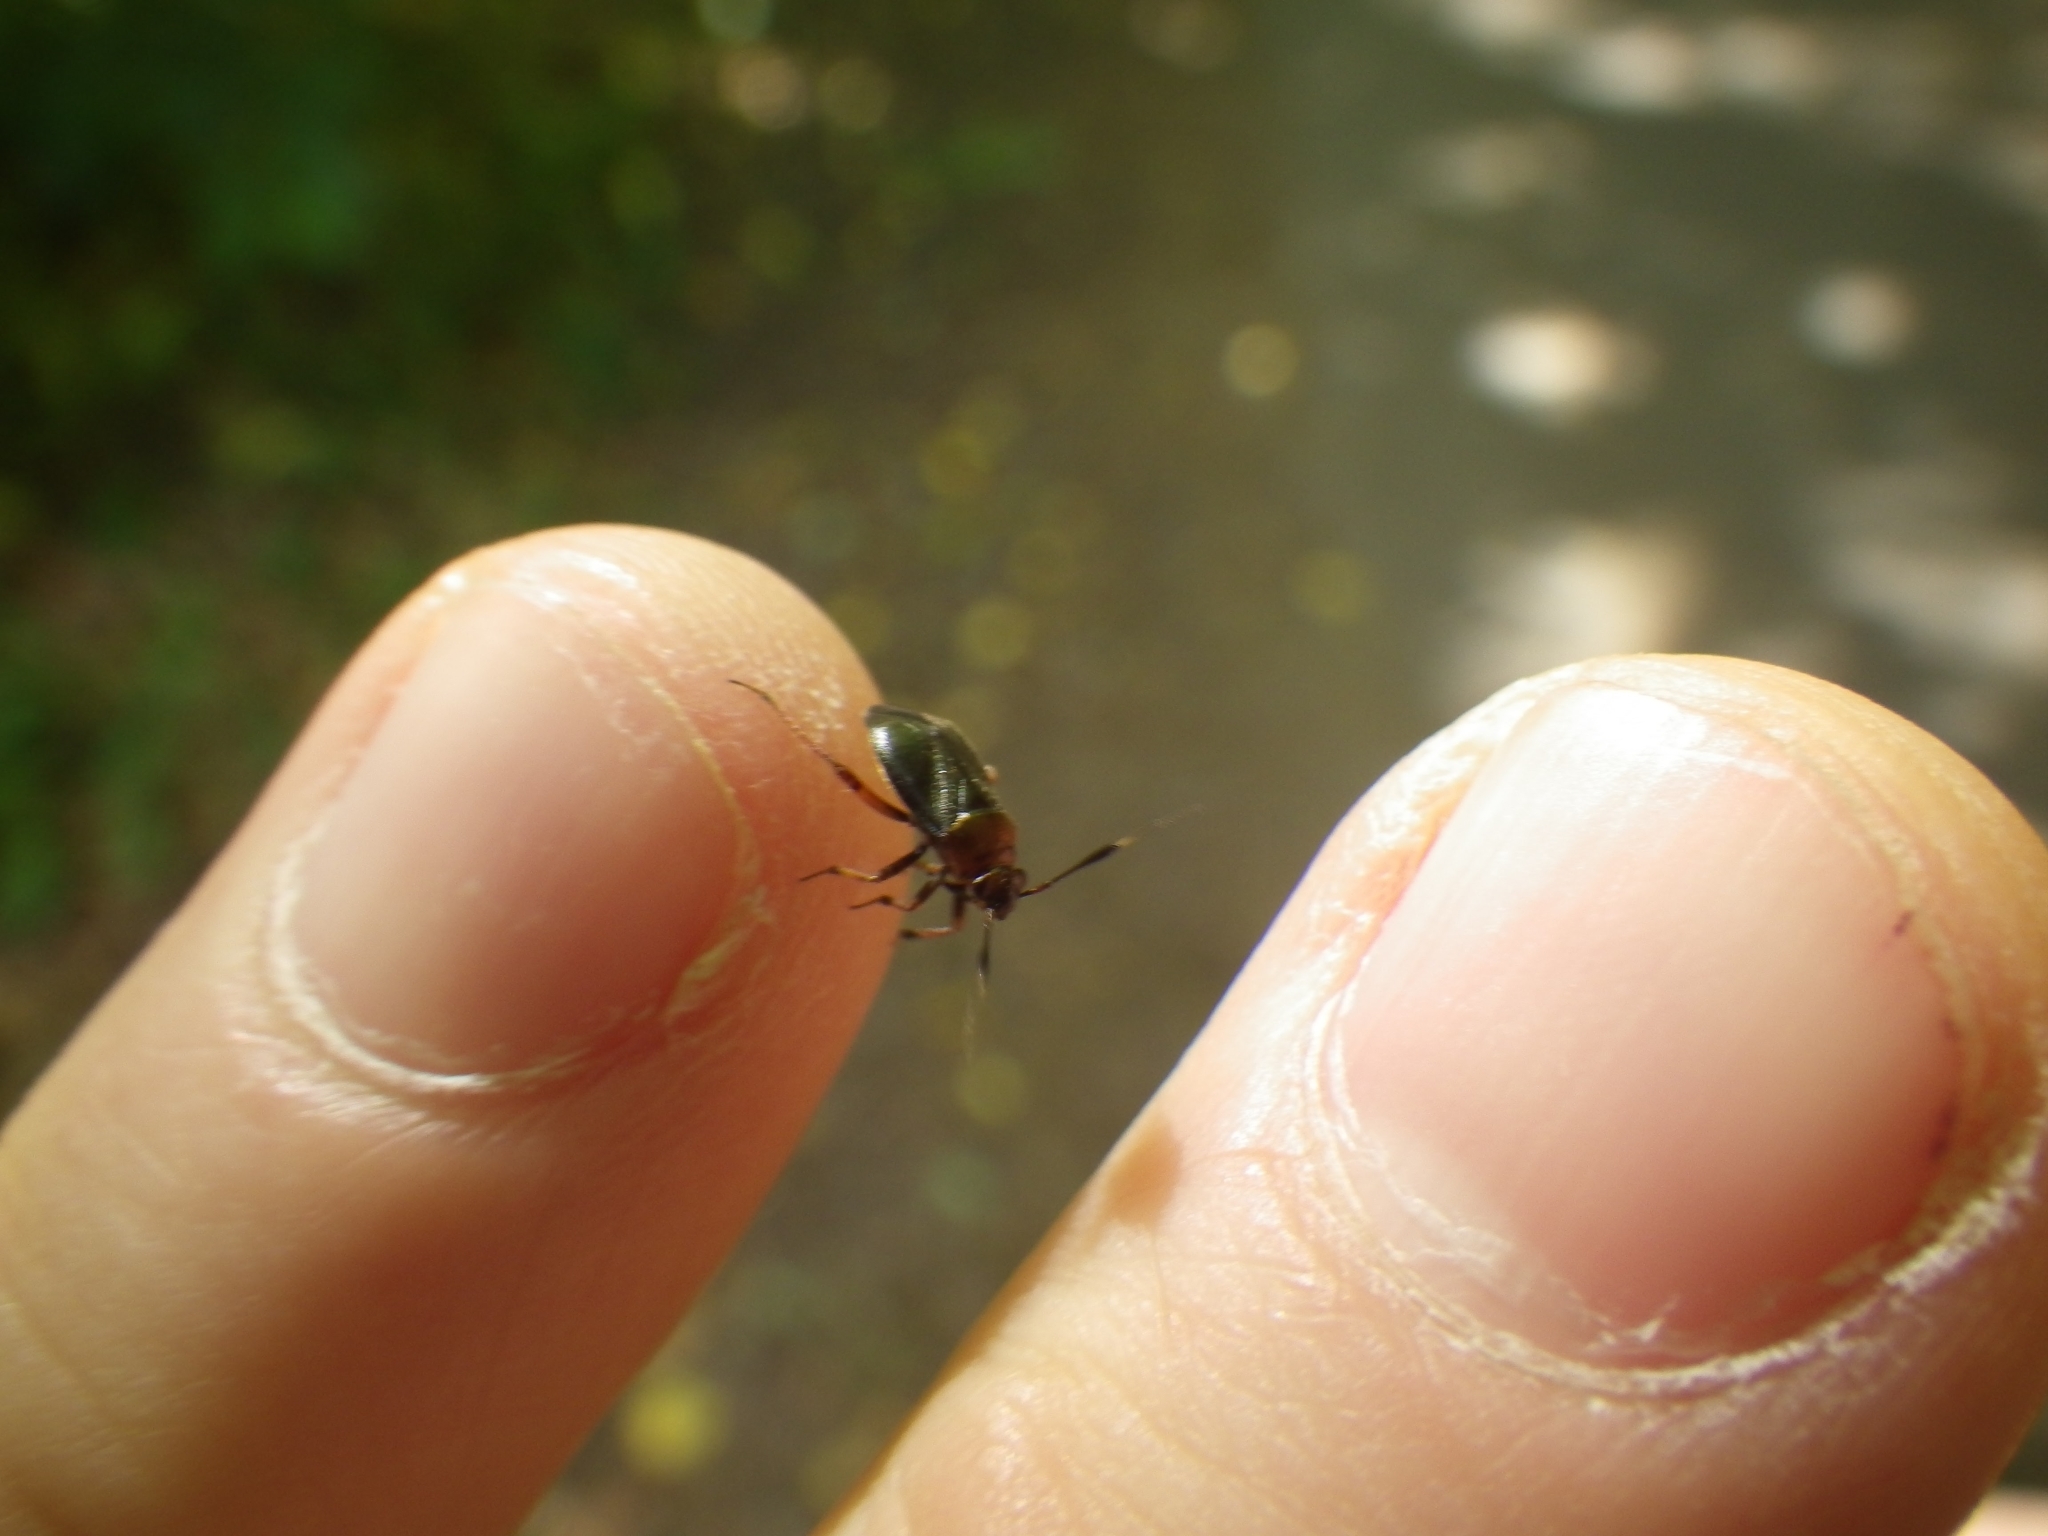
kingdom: Animalia
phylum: Arthropoda
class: Insecta
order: Hemiptera
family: Miridae
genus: Capsus
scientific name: Capsus ater
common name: Black plant bug
